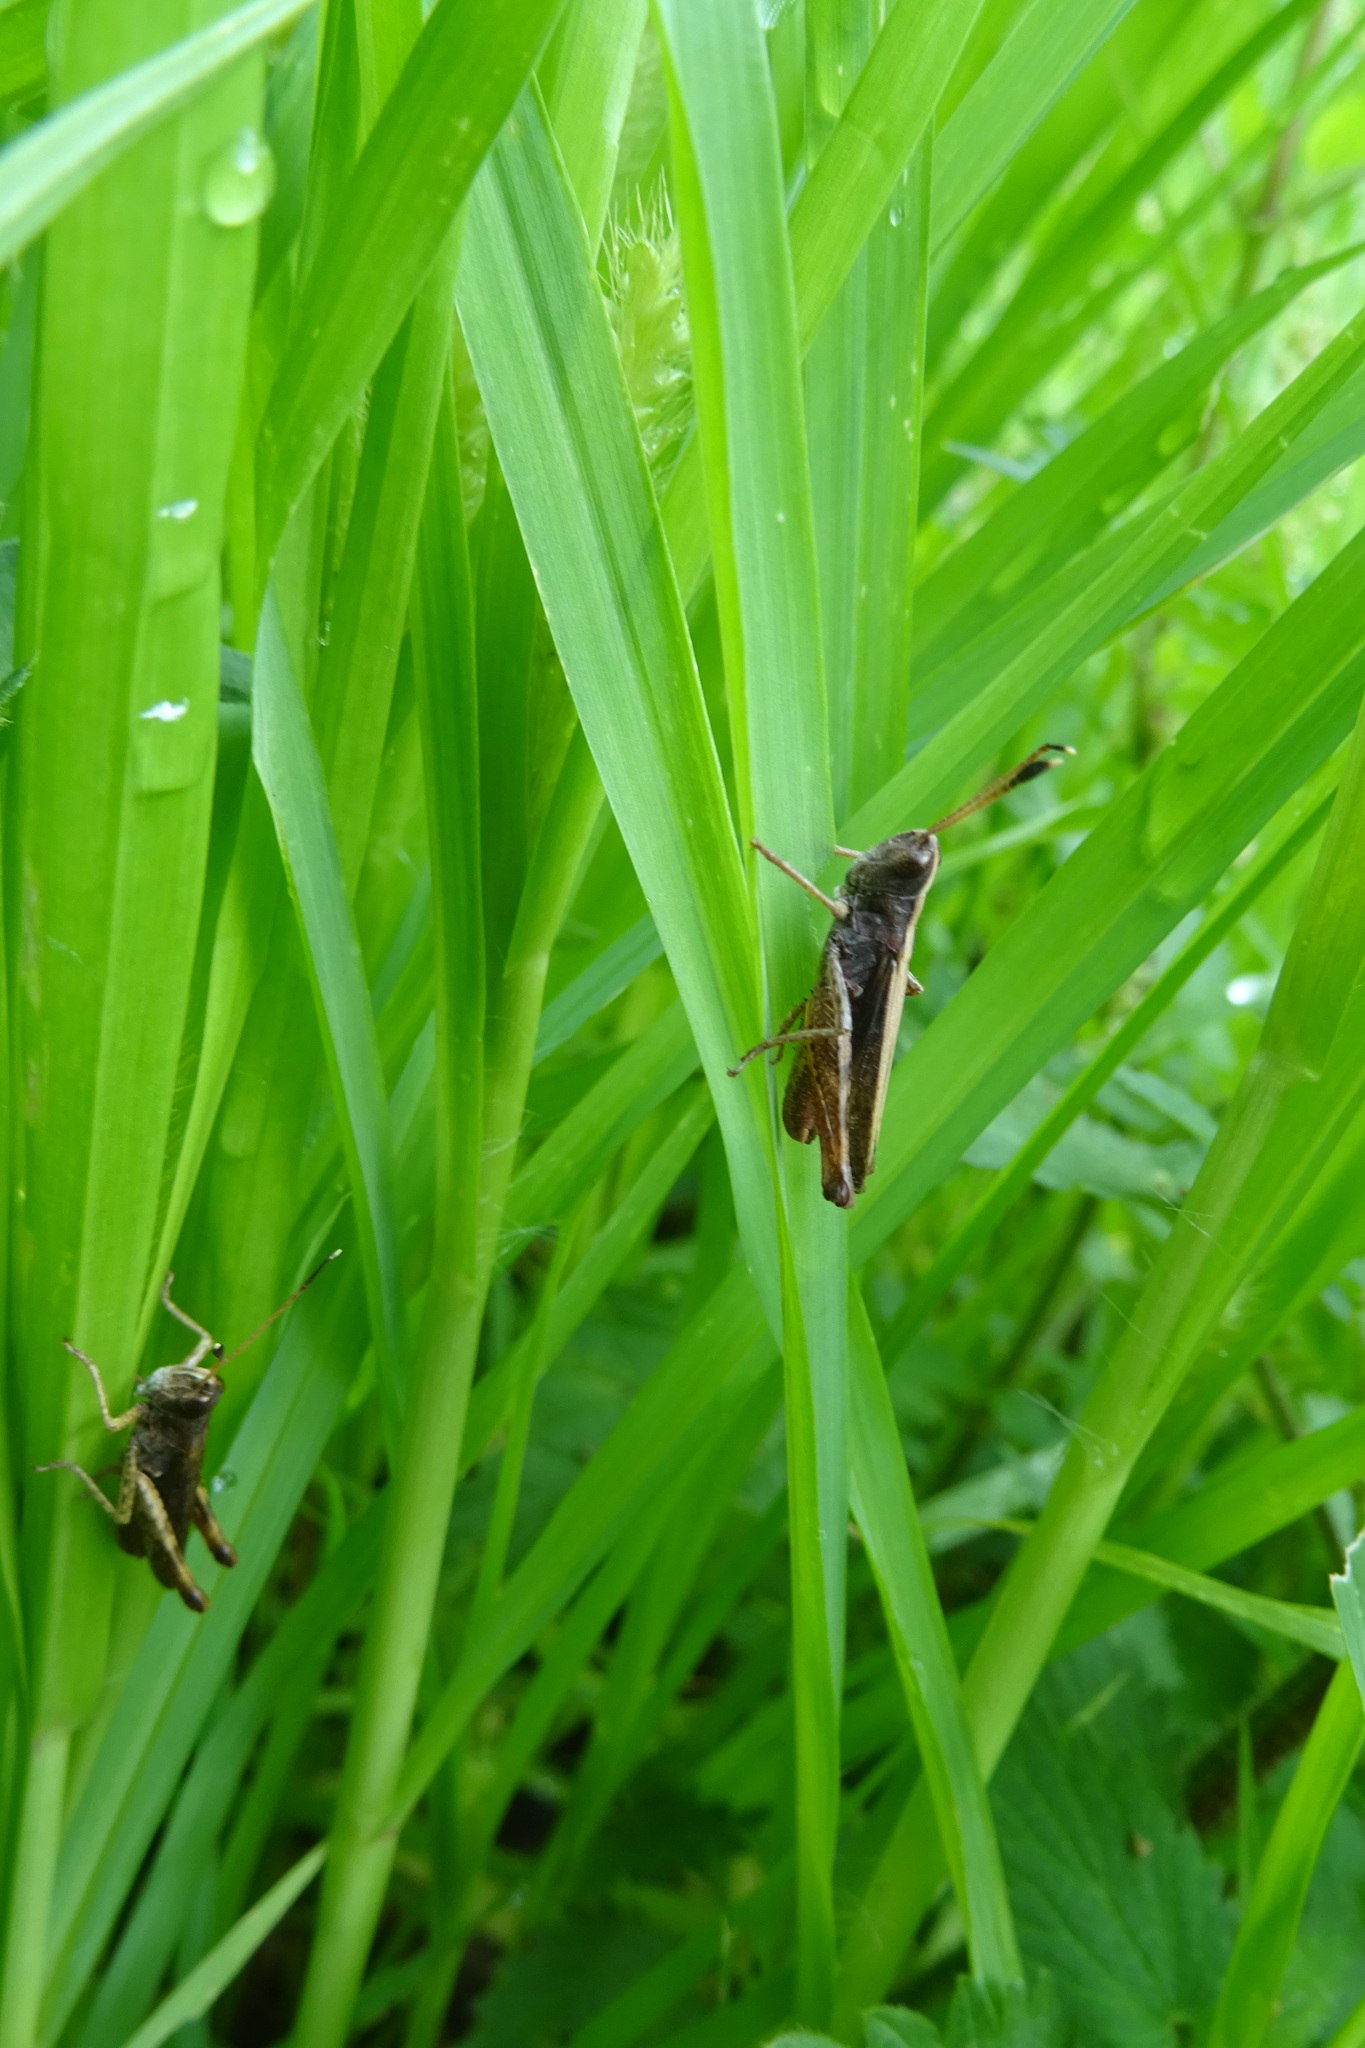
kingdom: Animalia
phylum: Arthropoda
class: Insecta
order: Orthoptera
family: Acrididae
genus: Gomphocerippus
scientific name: Gomphocerippus rufus
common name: Rufous grasshopper
